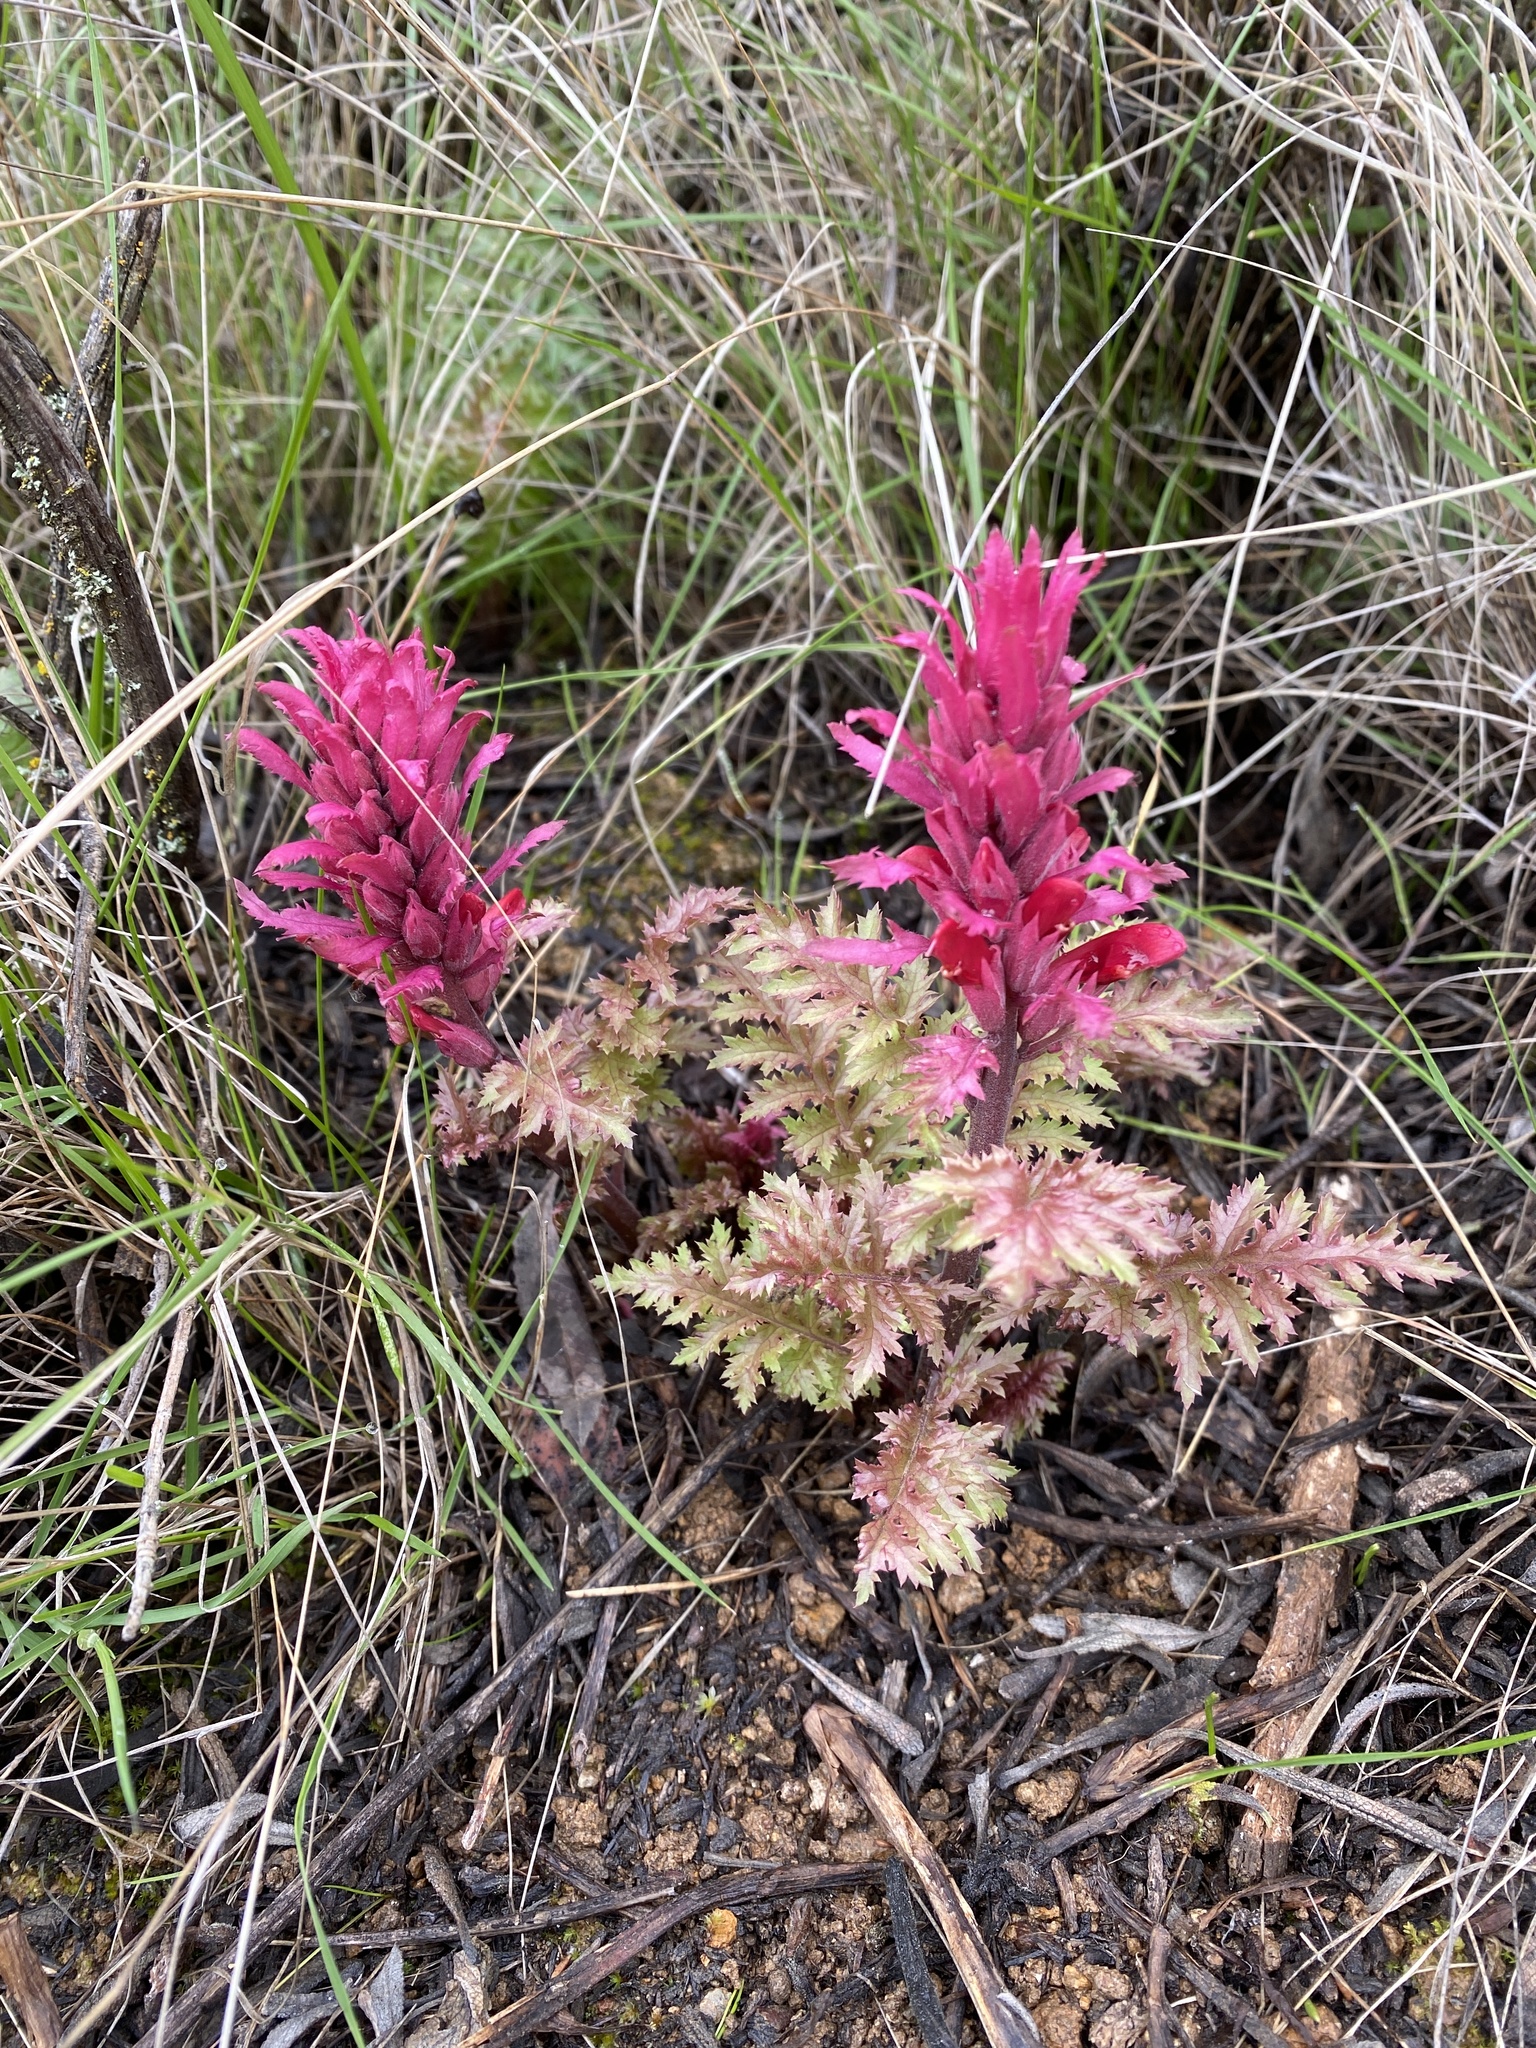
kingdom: Plantae
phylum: Tracheophyta
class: Magnoliopsida
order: Lamiales
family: Orobanchaceae
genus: Pedicularis
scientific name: Pedicularis densiflora
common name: Indian warrior
